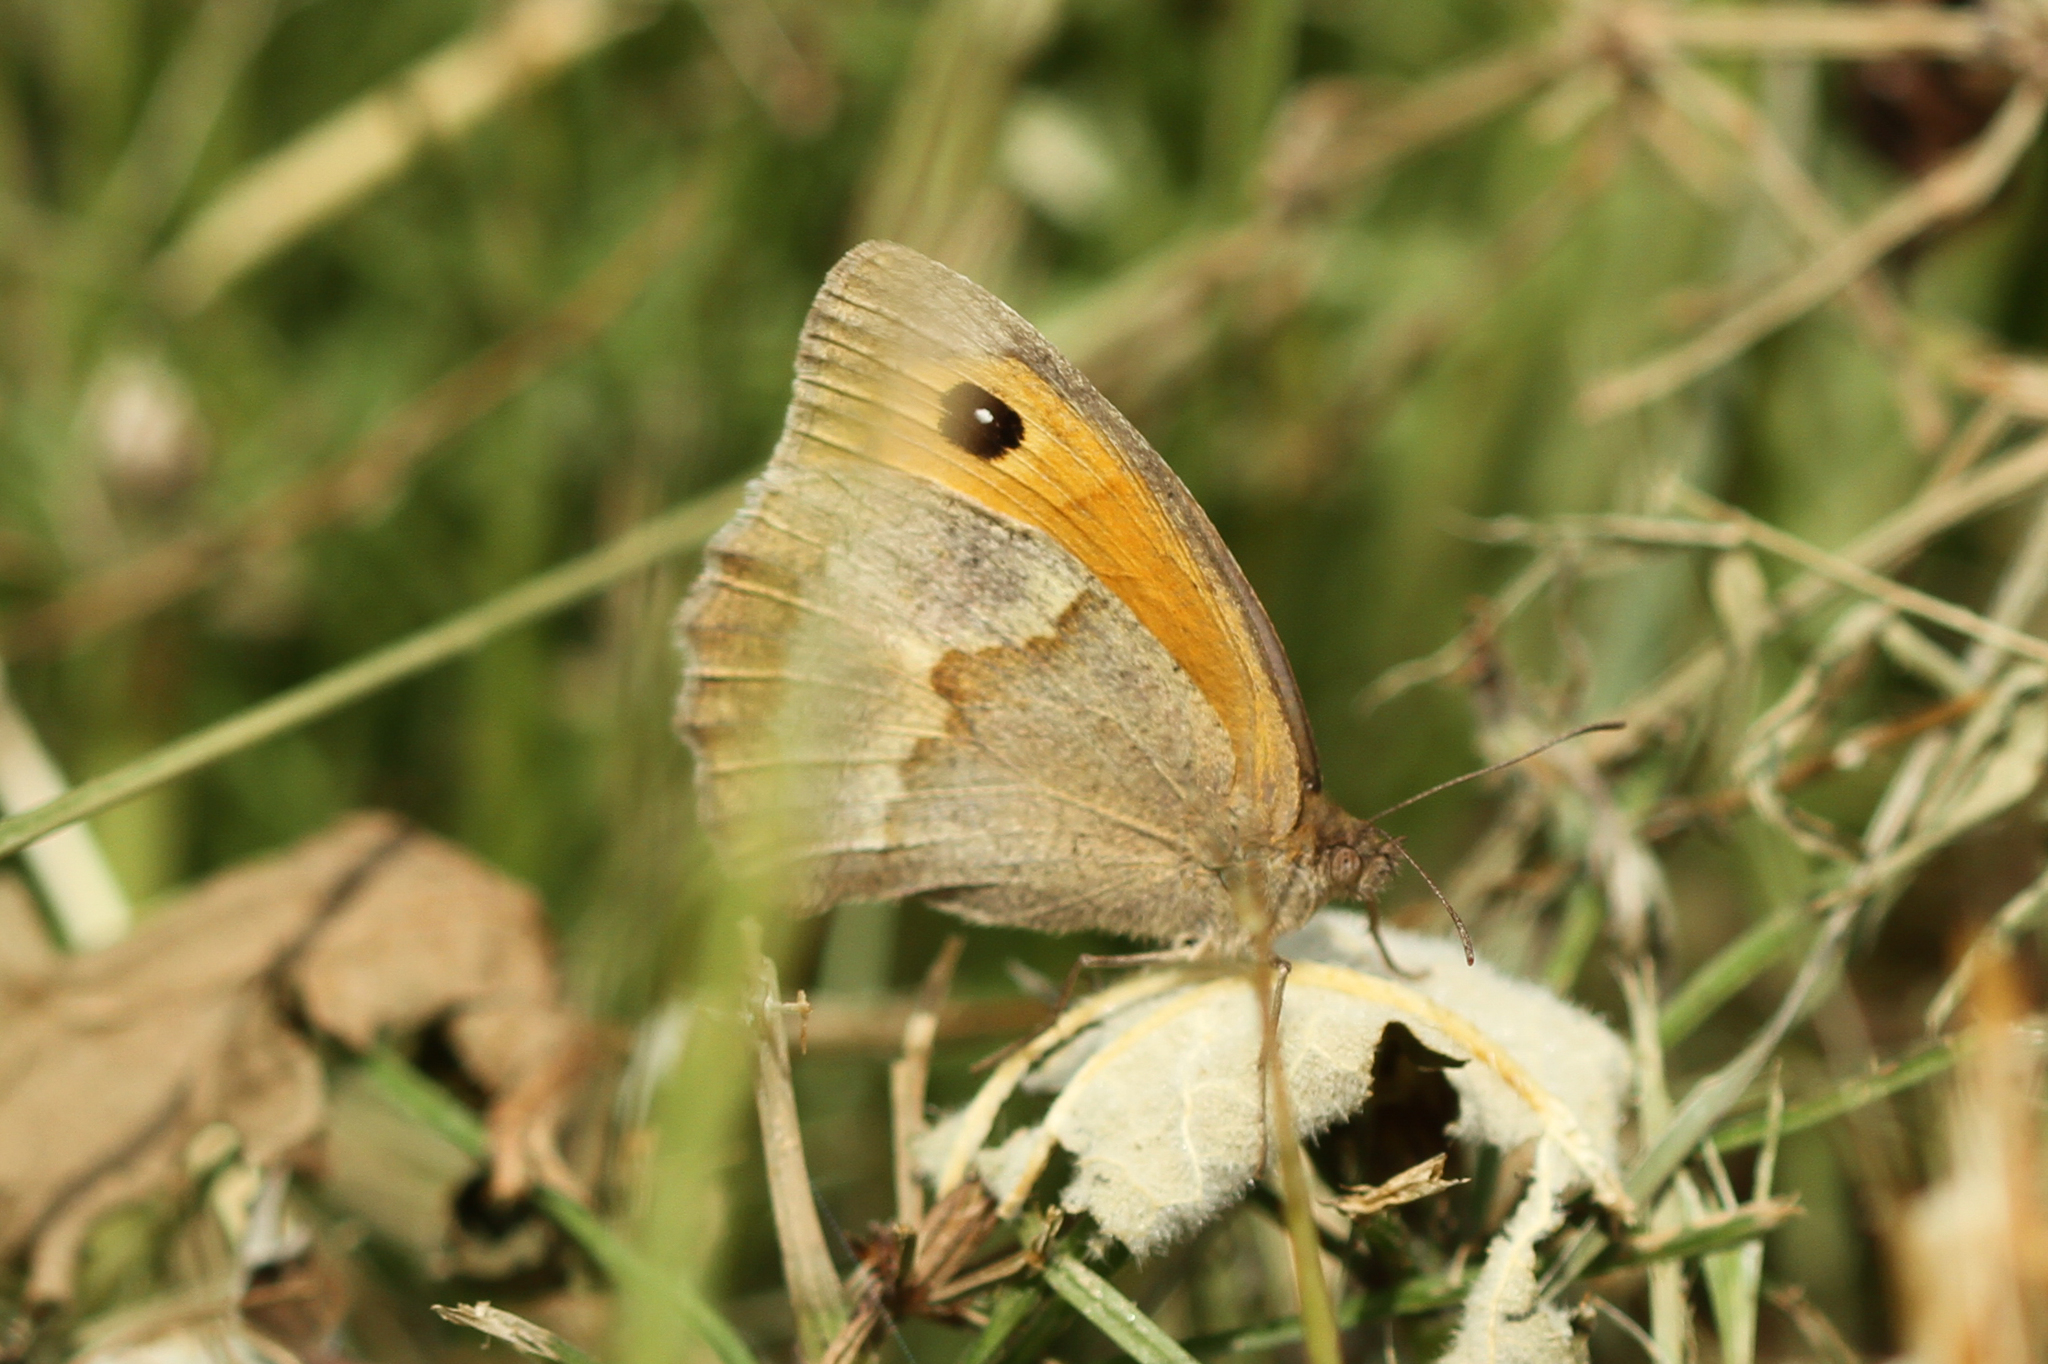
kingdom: Animalia
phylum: Arthropoda
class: Insecta
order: Lepidoptera
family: Nymphalidae
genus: Maniola
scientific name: Maniola jurtina
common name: Meadow brown
